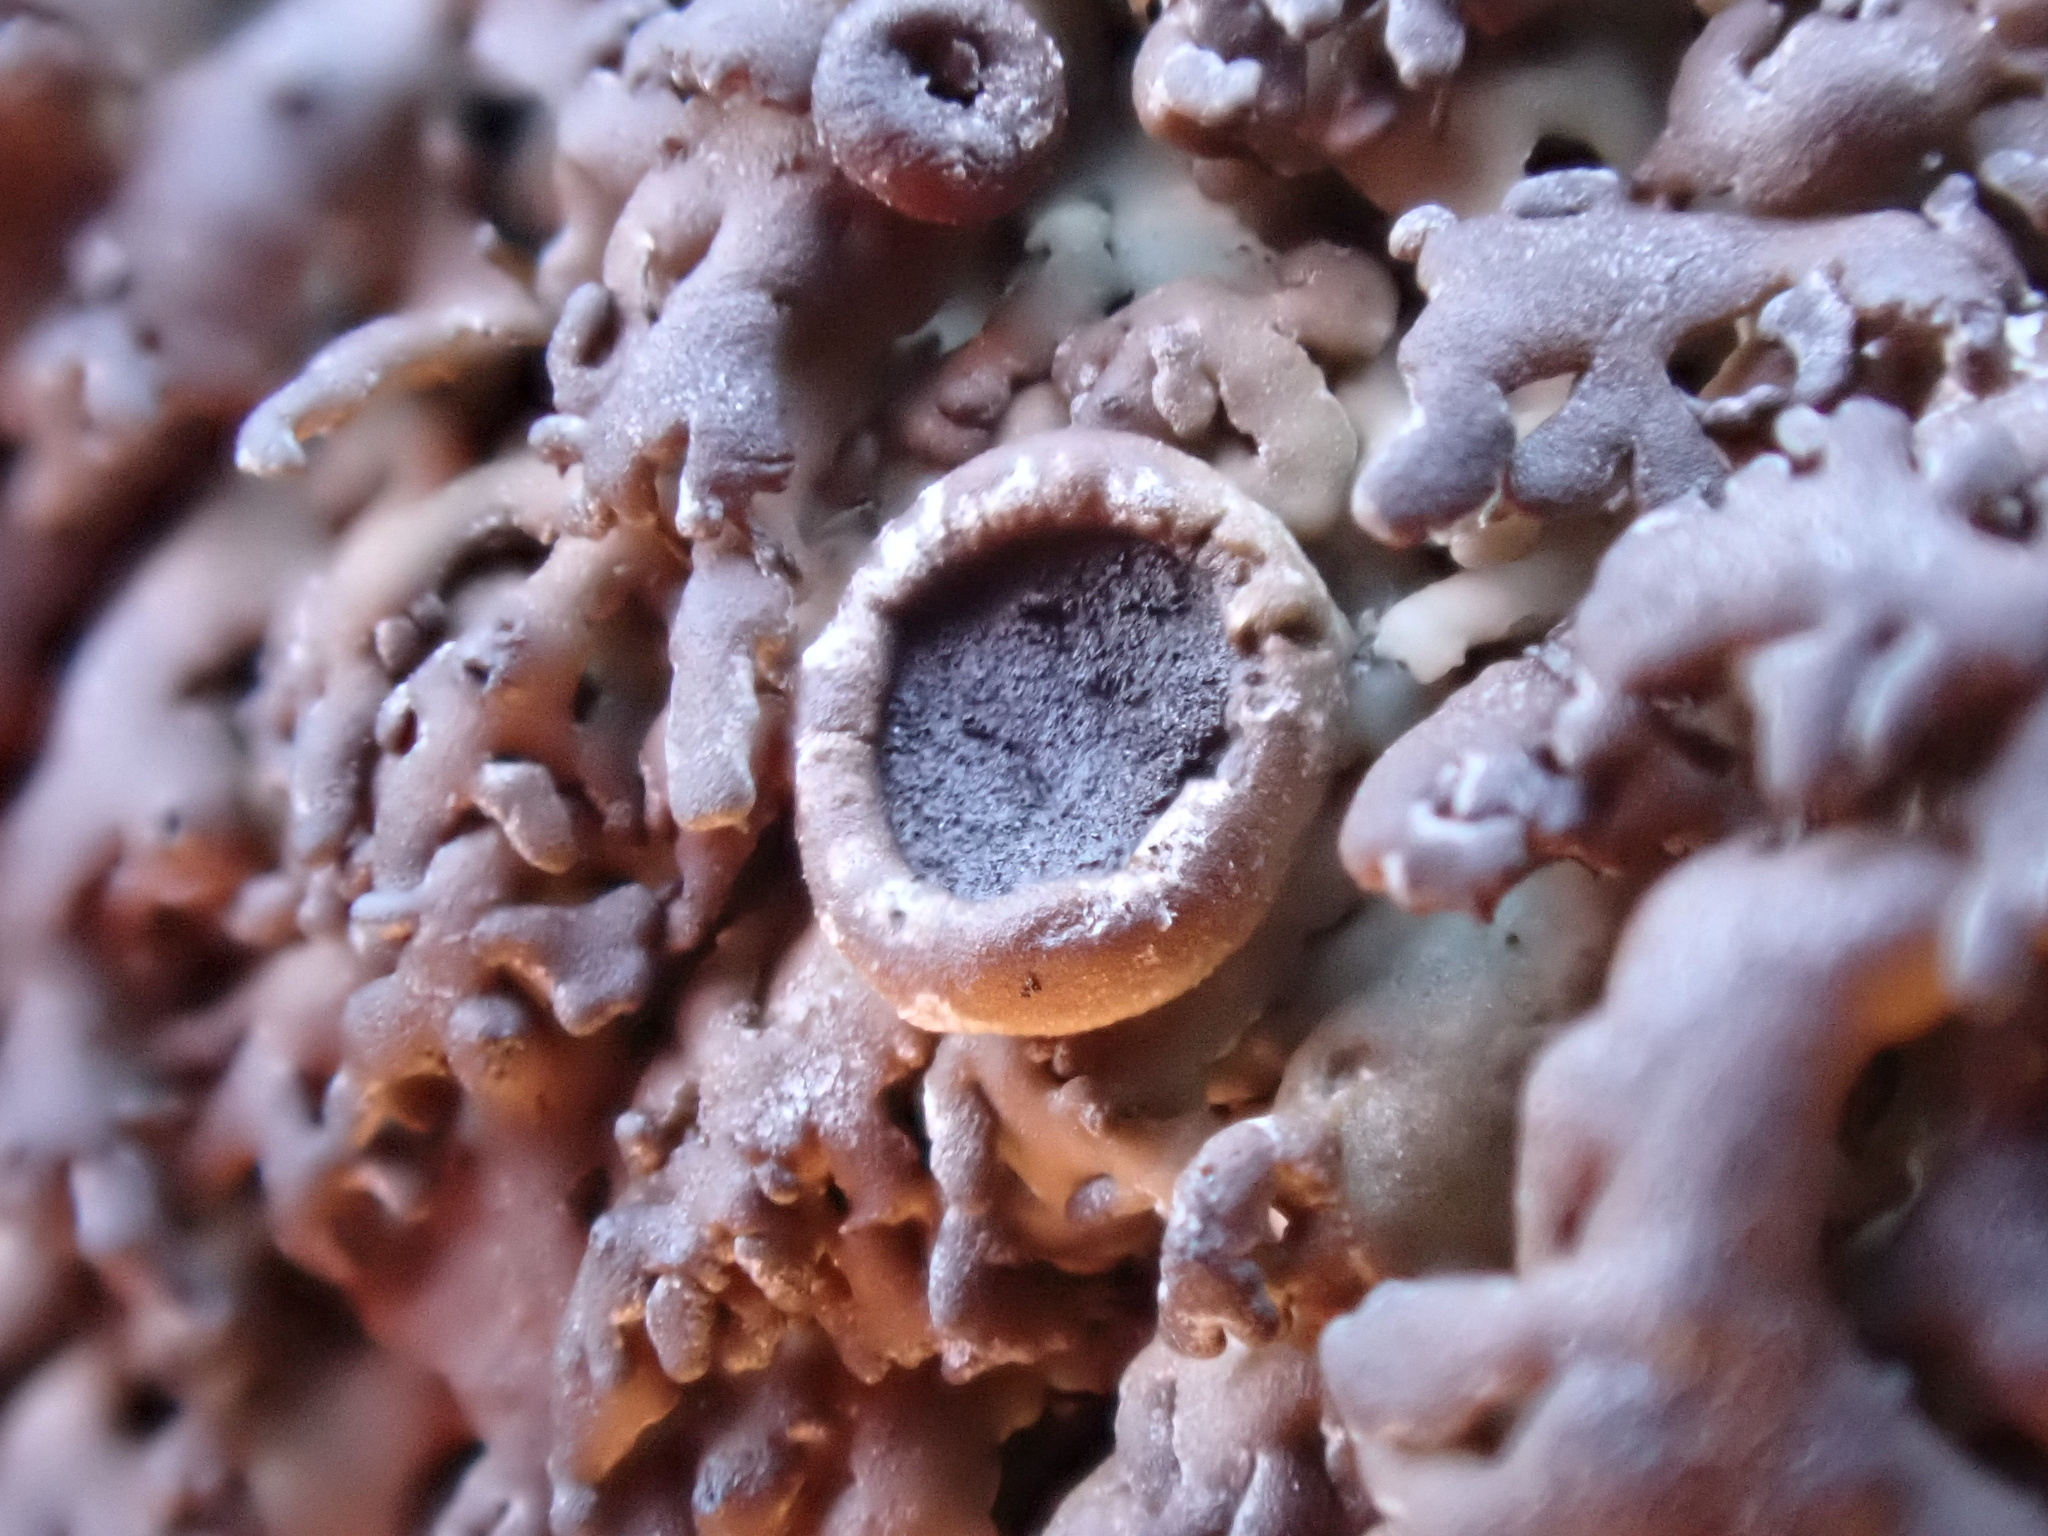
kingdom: Fungi
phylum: Ascomycota
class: Lecanoromycetes
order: Caliciales
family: Physciaceae
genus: Kurokawia
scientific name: Kurokawia runcinata
